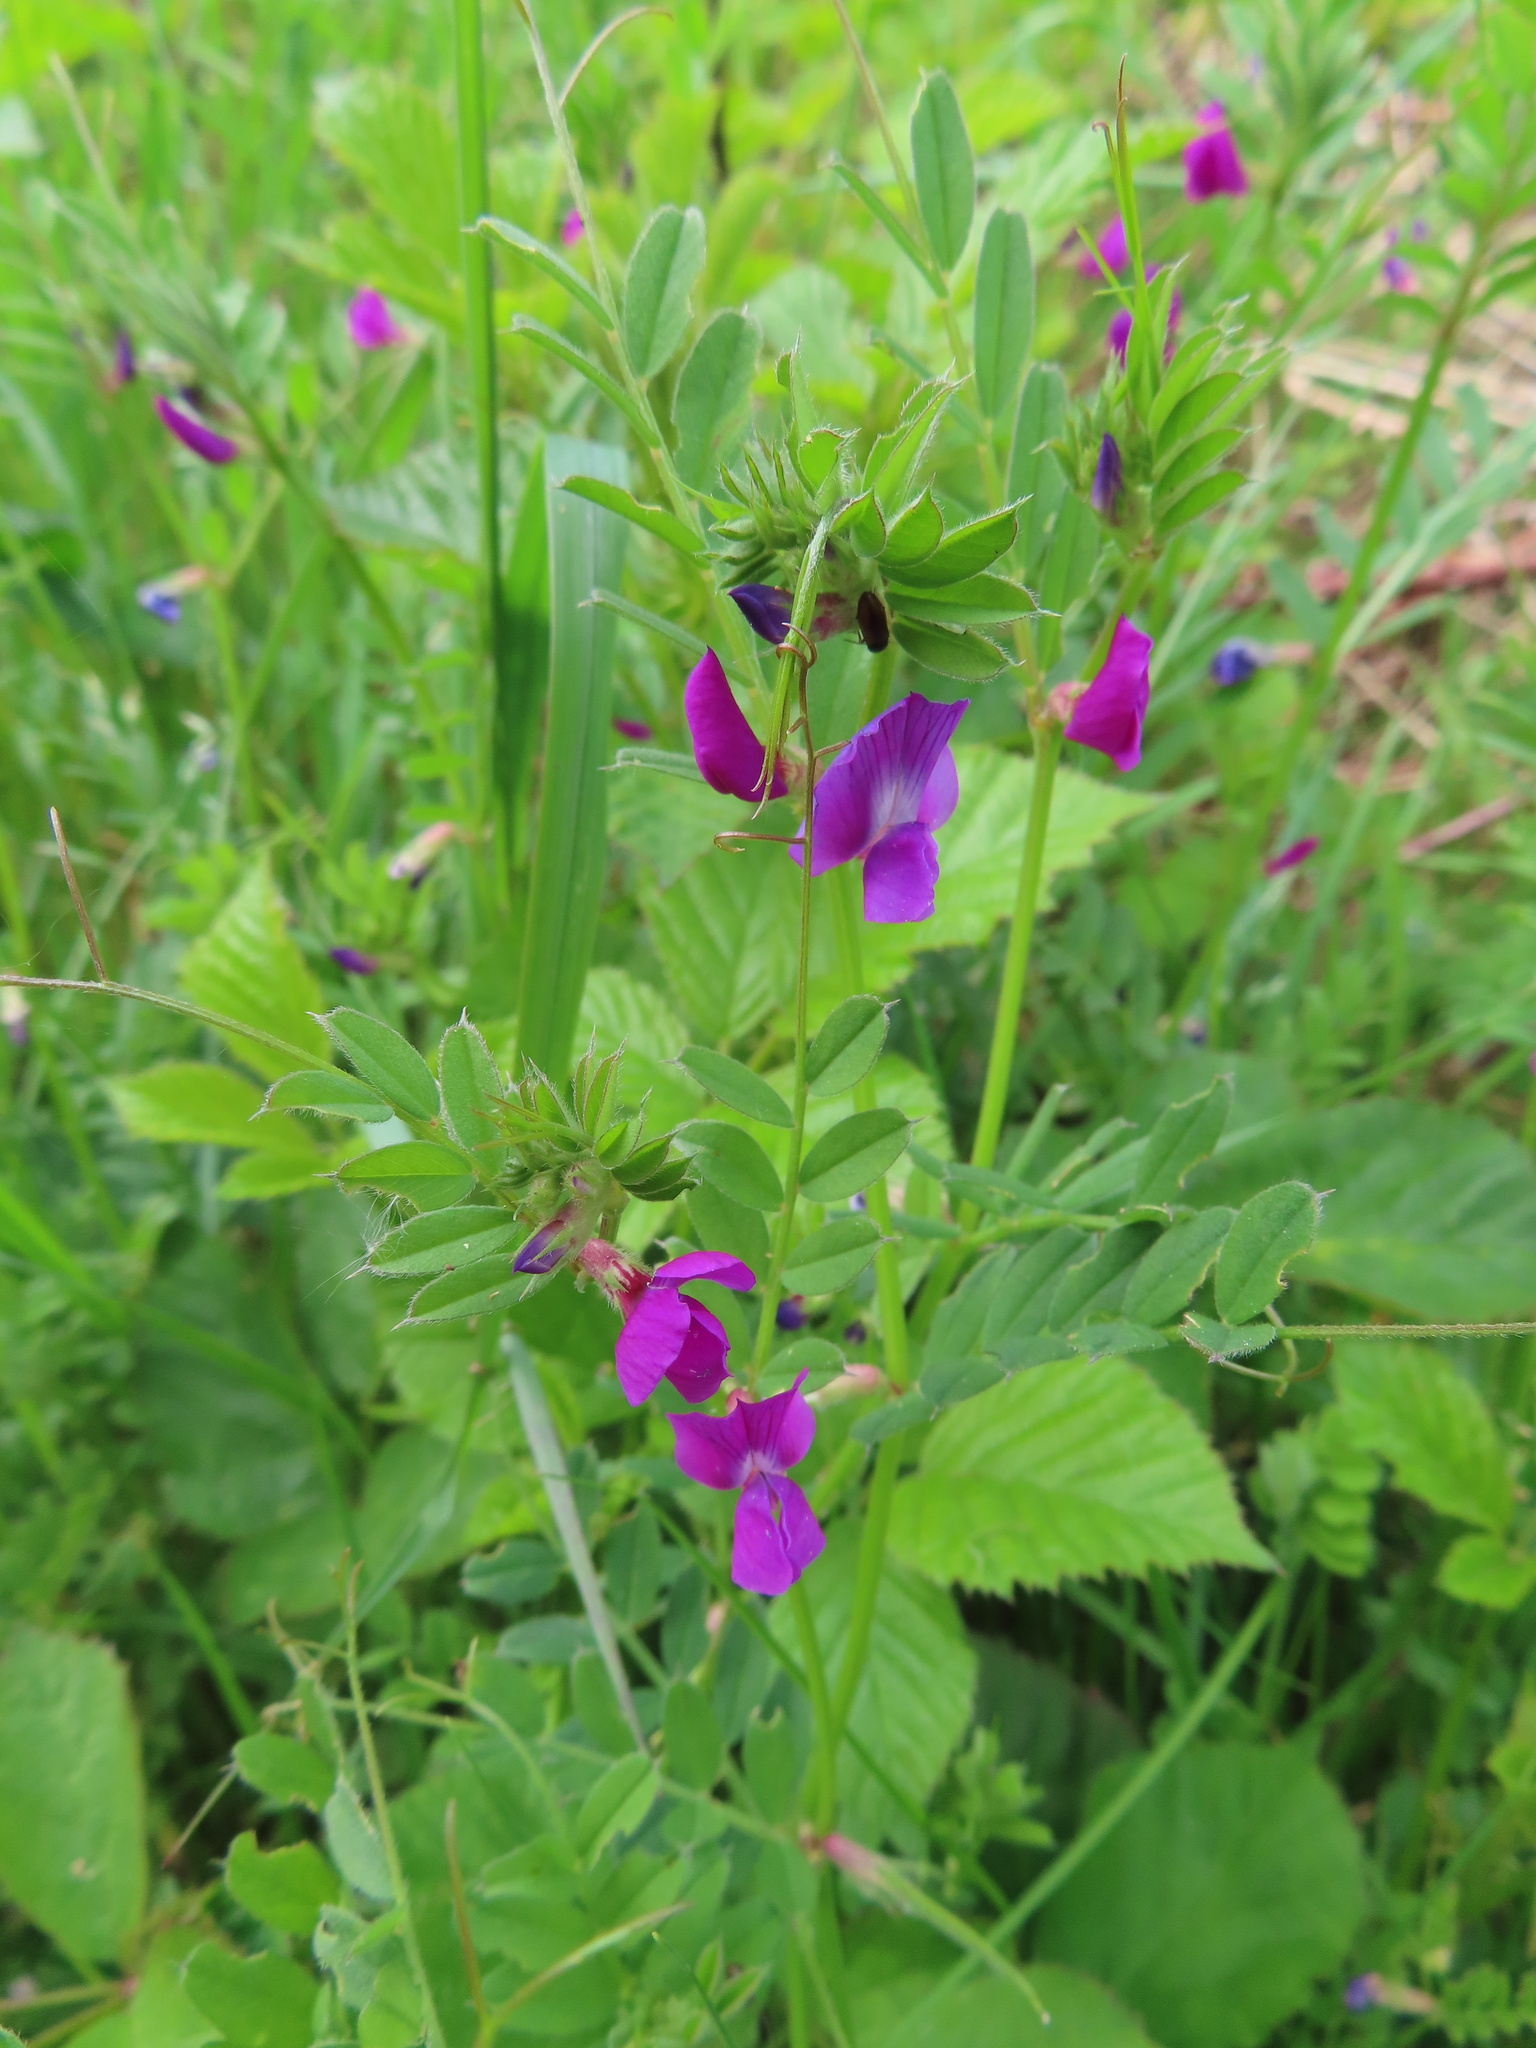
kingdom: Plantae
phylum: Tracheophyta
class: Magnoliopsida
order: Fabales
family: Fabaceae
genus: Vicia
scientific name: Vicia sativa
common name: Garden vetch
